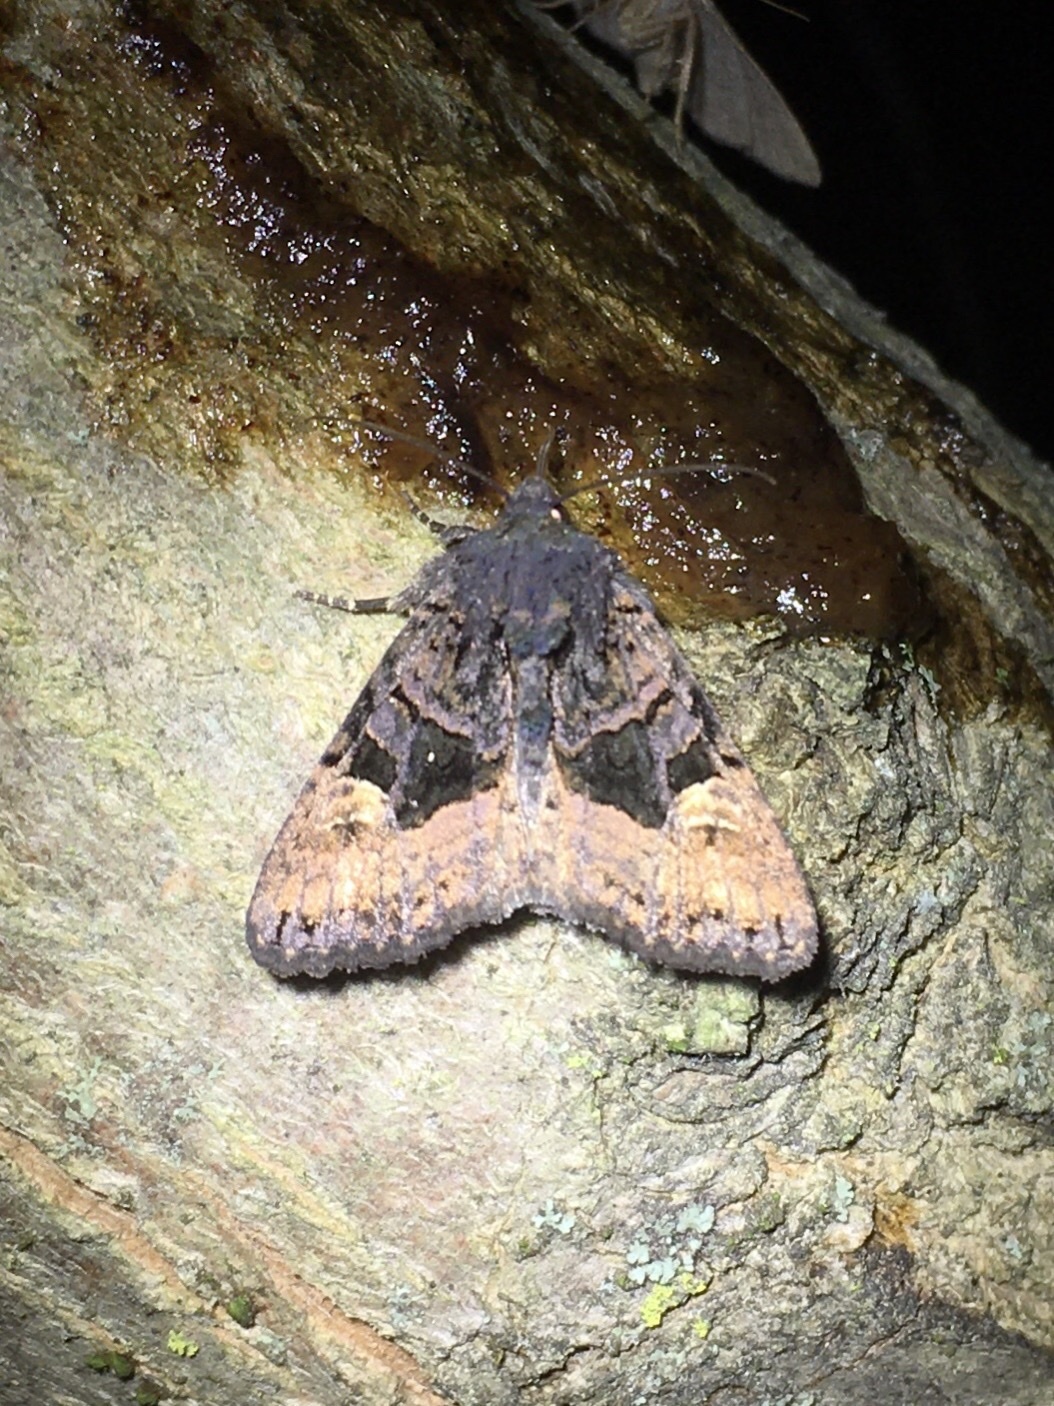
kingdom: Animalia
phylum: Arthropoda
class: Insecta
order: Lepidoptera
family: Noctuidae
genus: Euplexia
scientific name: Euplexia benesimilis
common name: American angle shades
